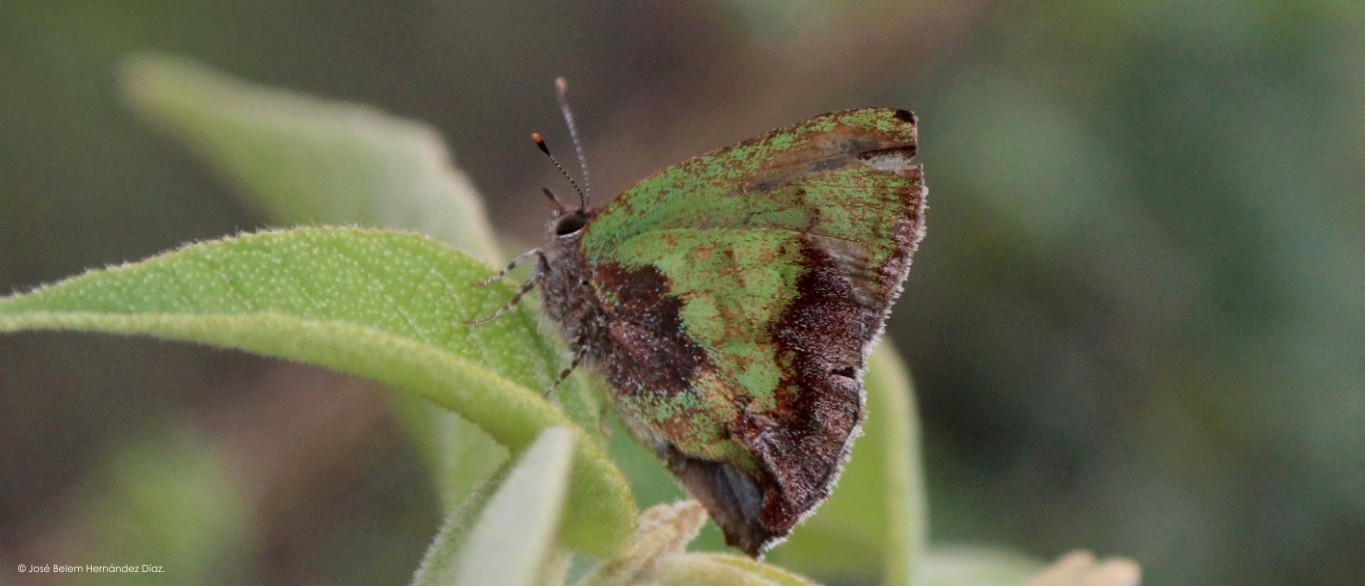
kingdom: Animalia
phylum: Arthropoda
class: Insecta
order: Lepidoptera
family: Lycaenidae
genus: Cyanophrys
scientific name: Cyanophrys agricolor
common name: Stained greenstreak
